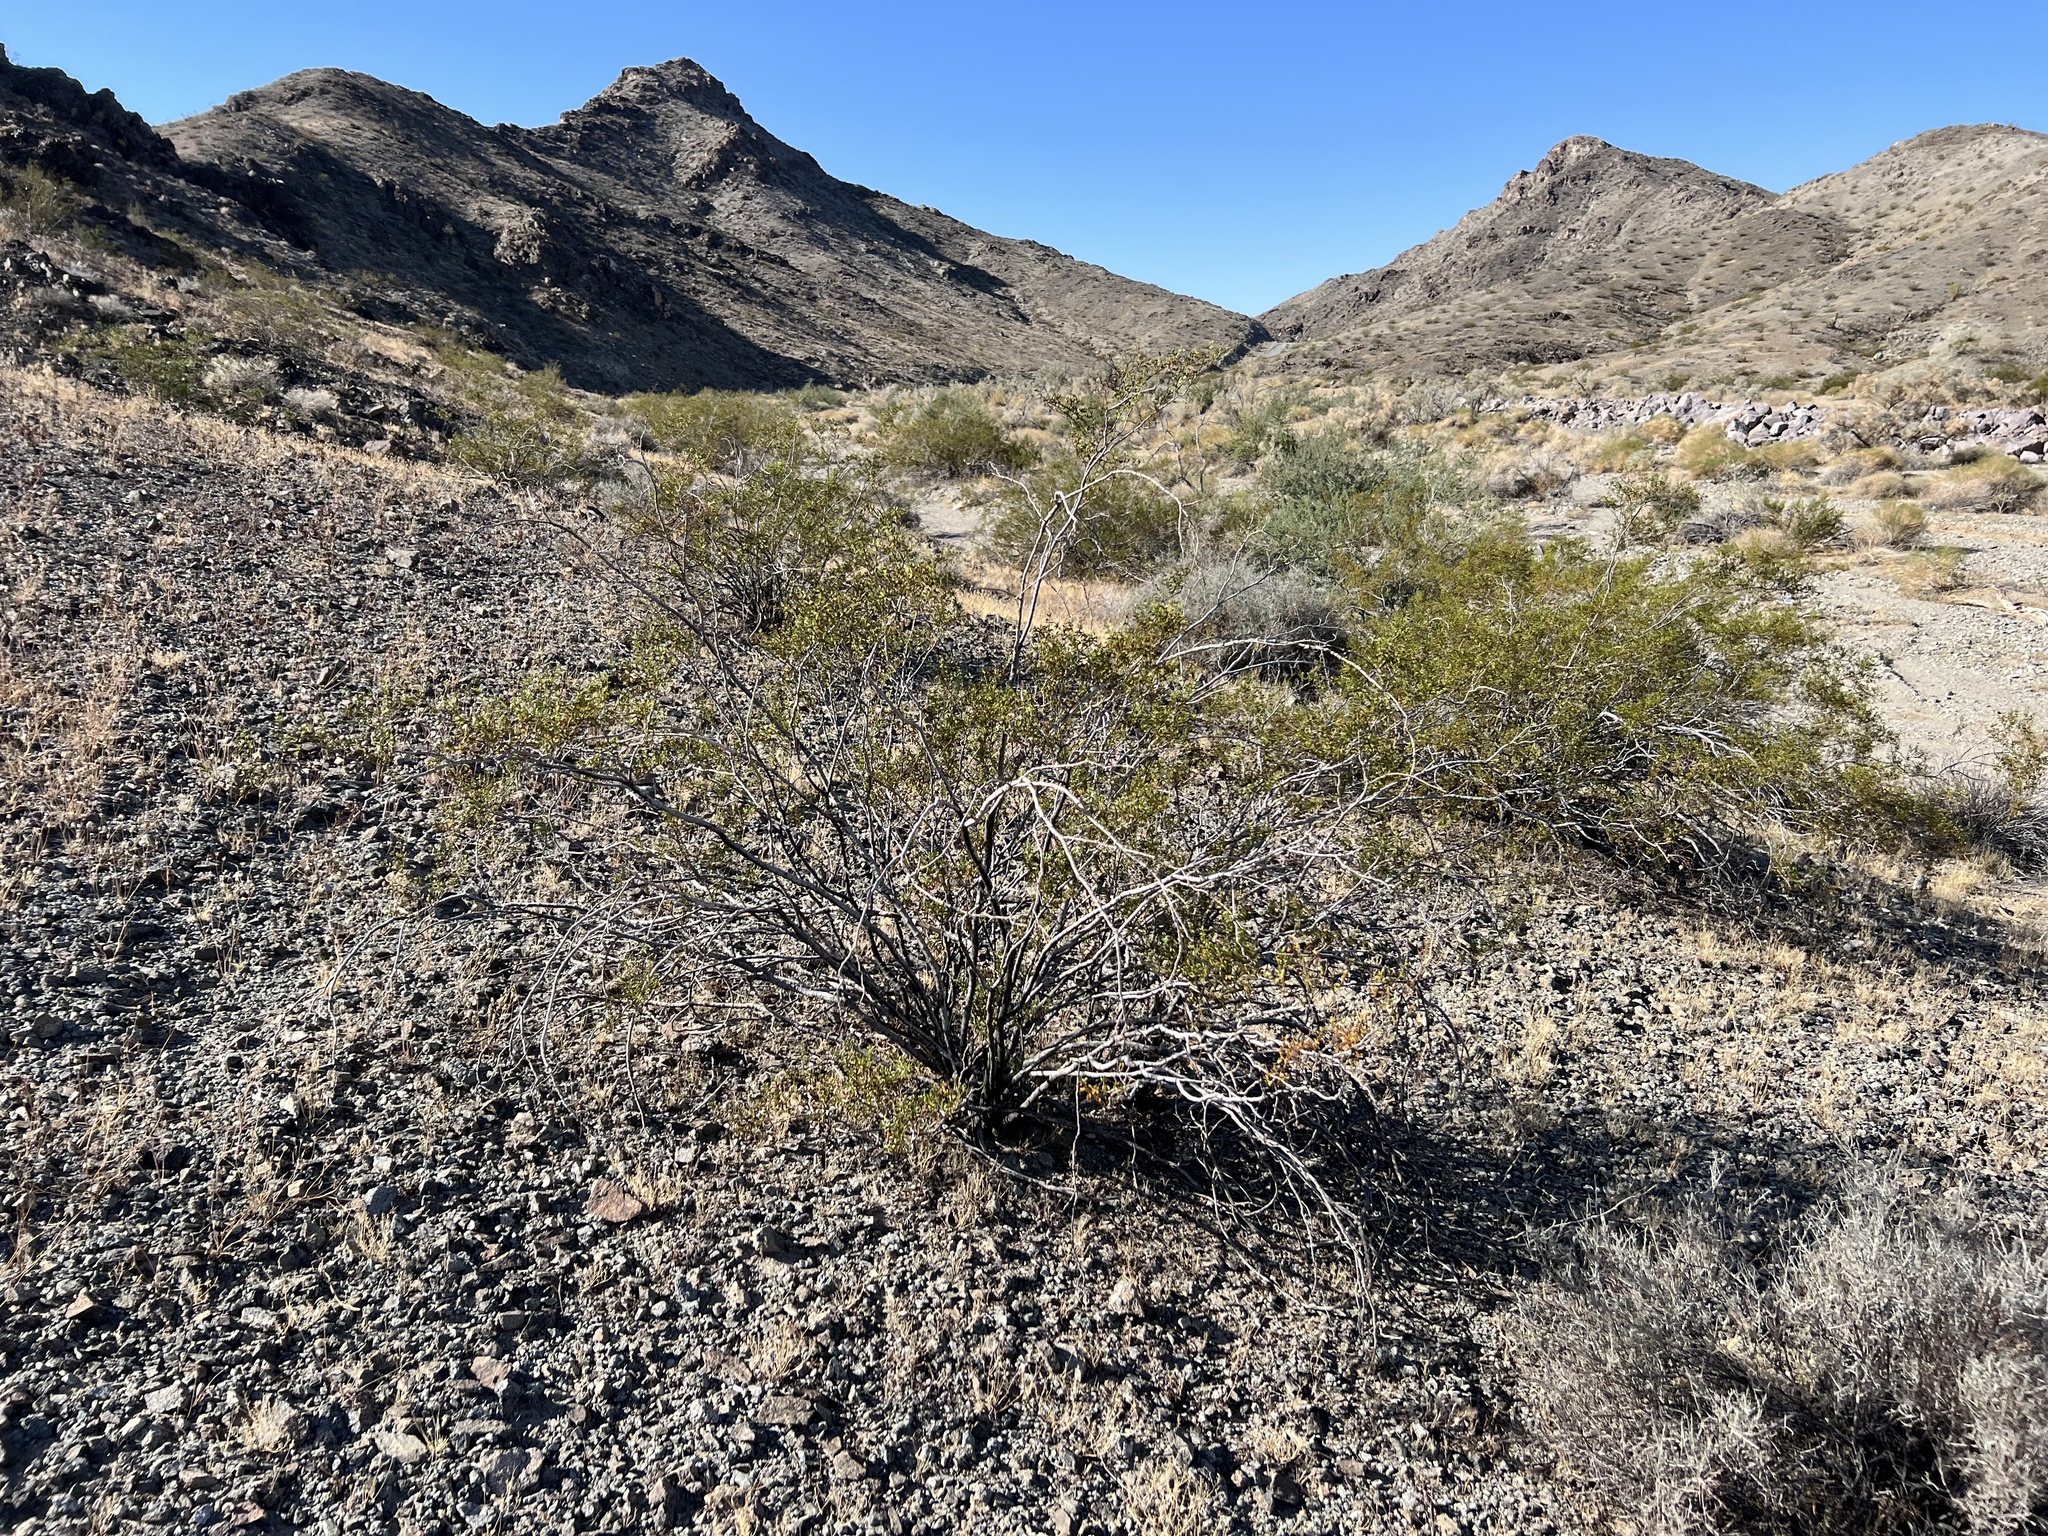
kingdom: Plantae
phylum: Tracheophyta
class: Magnoliopsida
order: Zygophyllales
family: Zygophyllaceae
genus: Larrea
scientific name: Larrea tridentata
